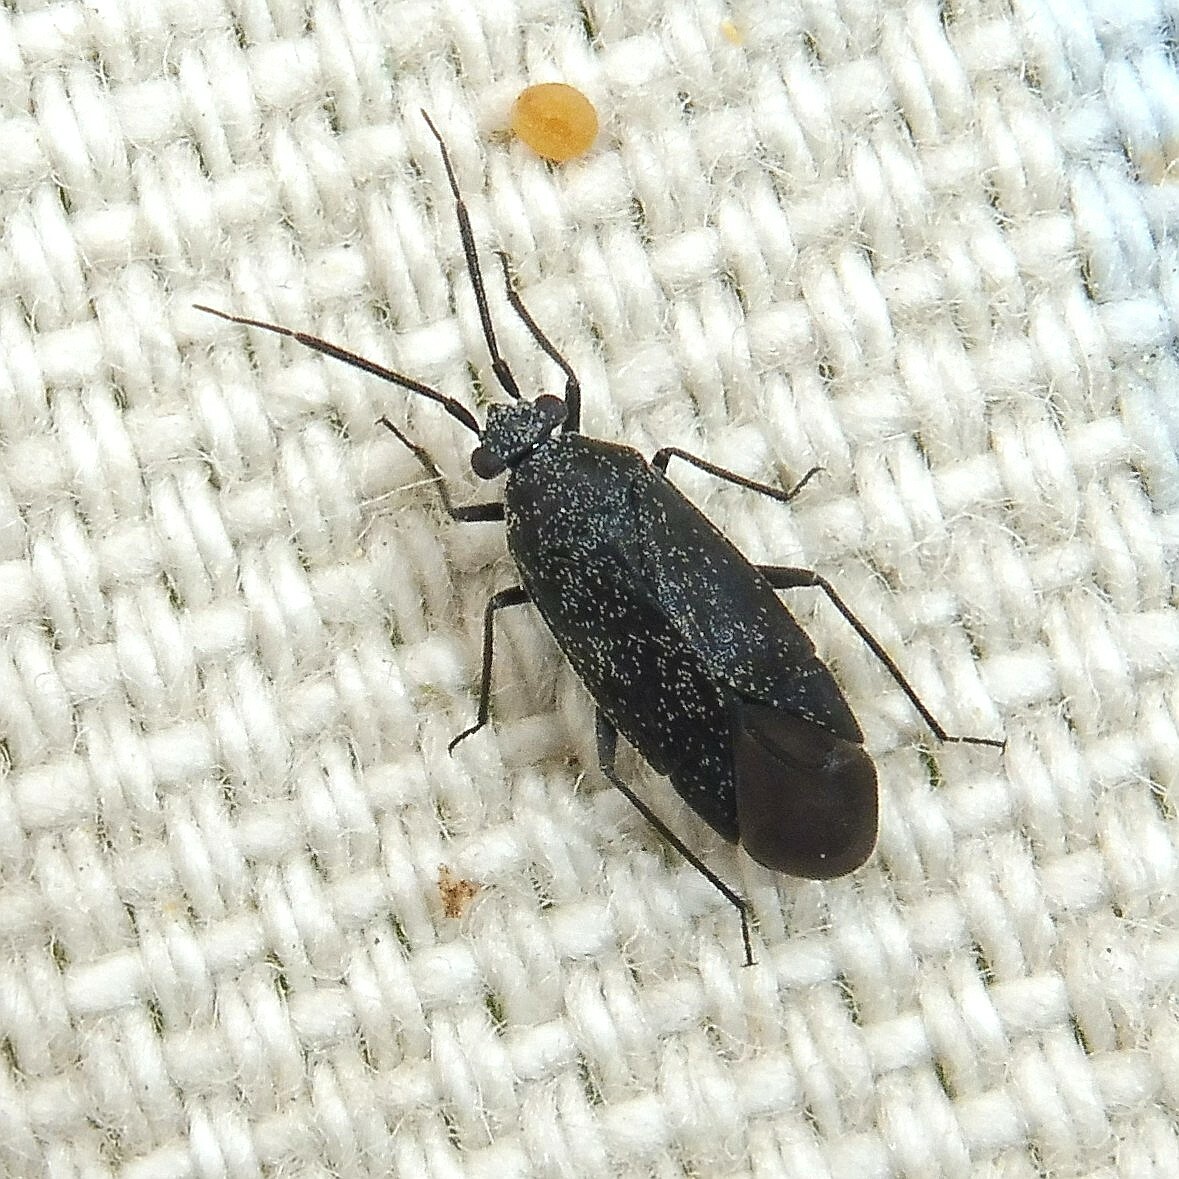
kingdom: Animalia
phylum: Arthropoda
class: Insecta
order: Hemiptera
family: Miridae
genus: Heterocordylus
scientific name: Heterocordylus genistae
